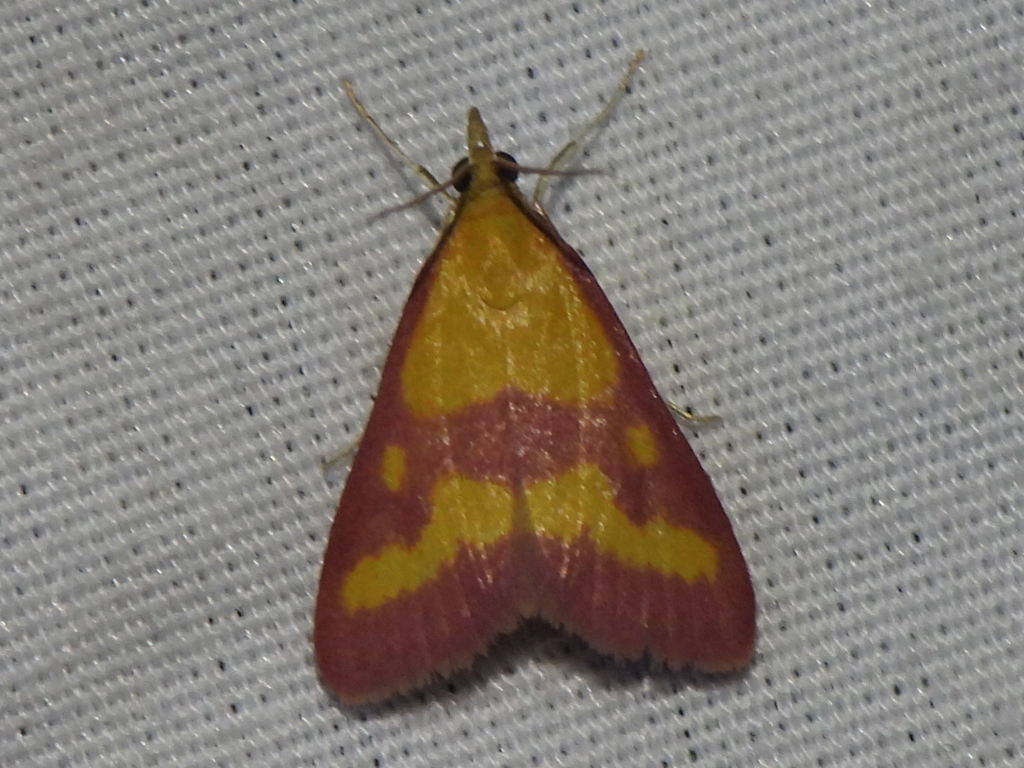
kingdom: Animalia
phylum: Arthropoda
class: Insecta
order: Lepidoptera
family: Crambidae
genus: Pyrausta
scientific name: Pyrausta laticlavia
